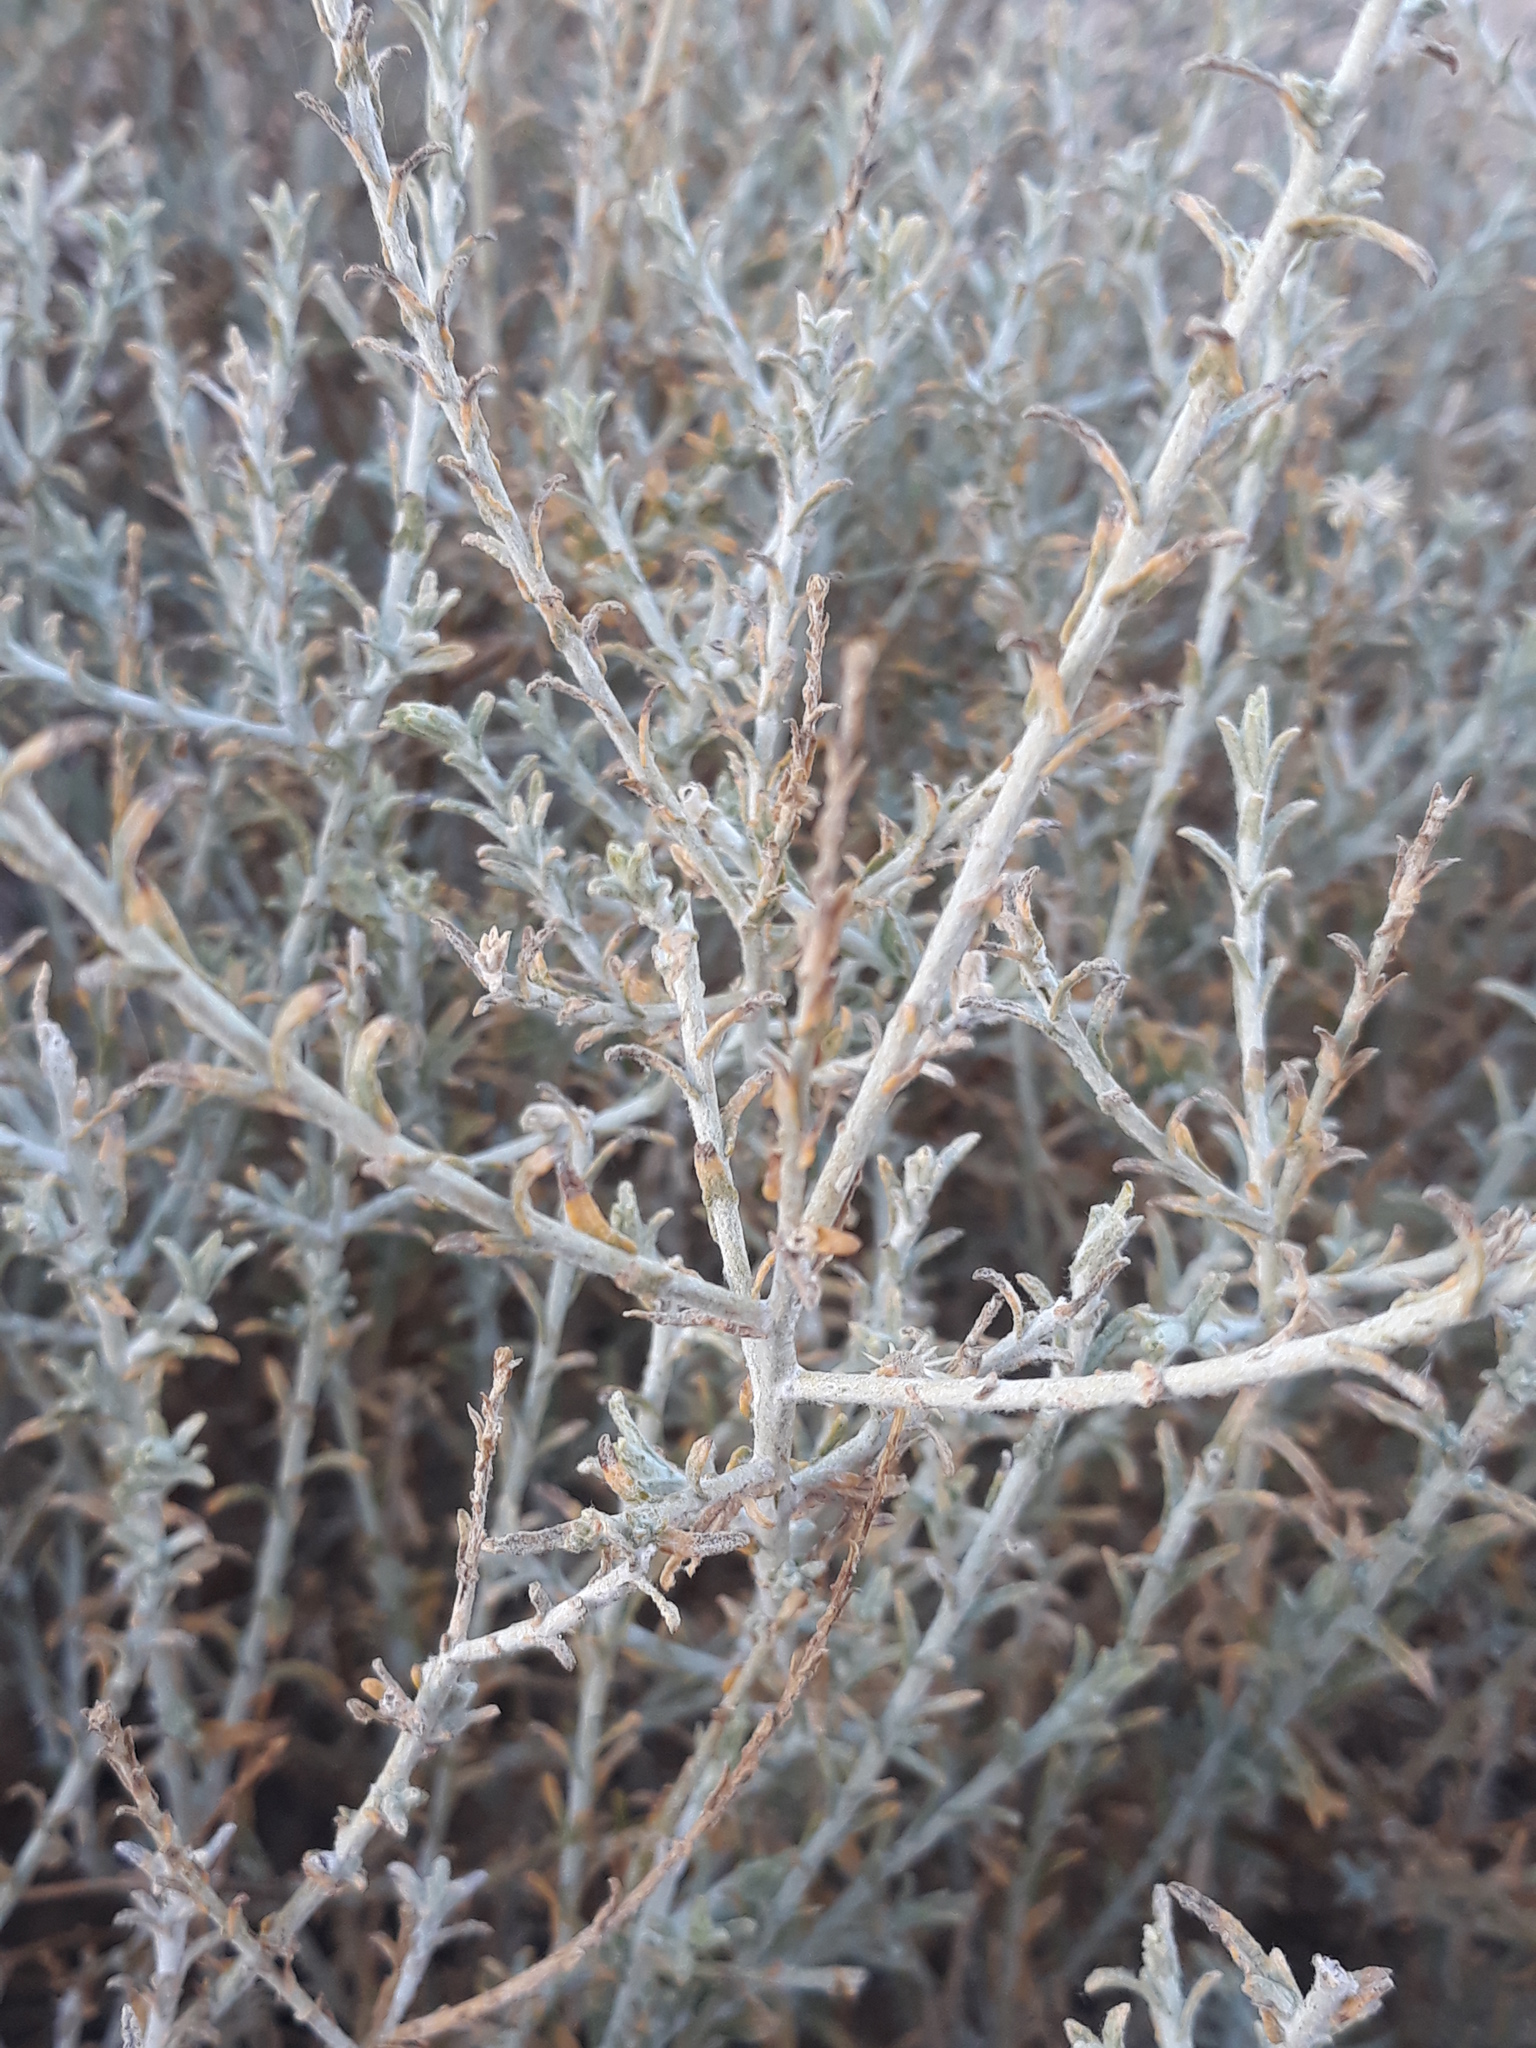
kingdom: Plantae
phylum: Tracheophyta
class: Magnoliopsida
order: Asterales
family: Asteraceae
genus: Pulicaria
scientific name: Pulicaria undulata
